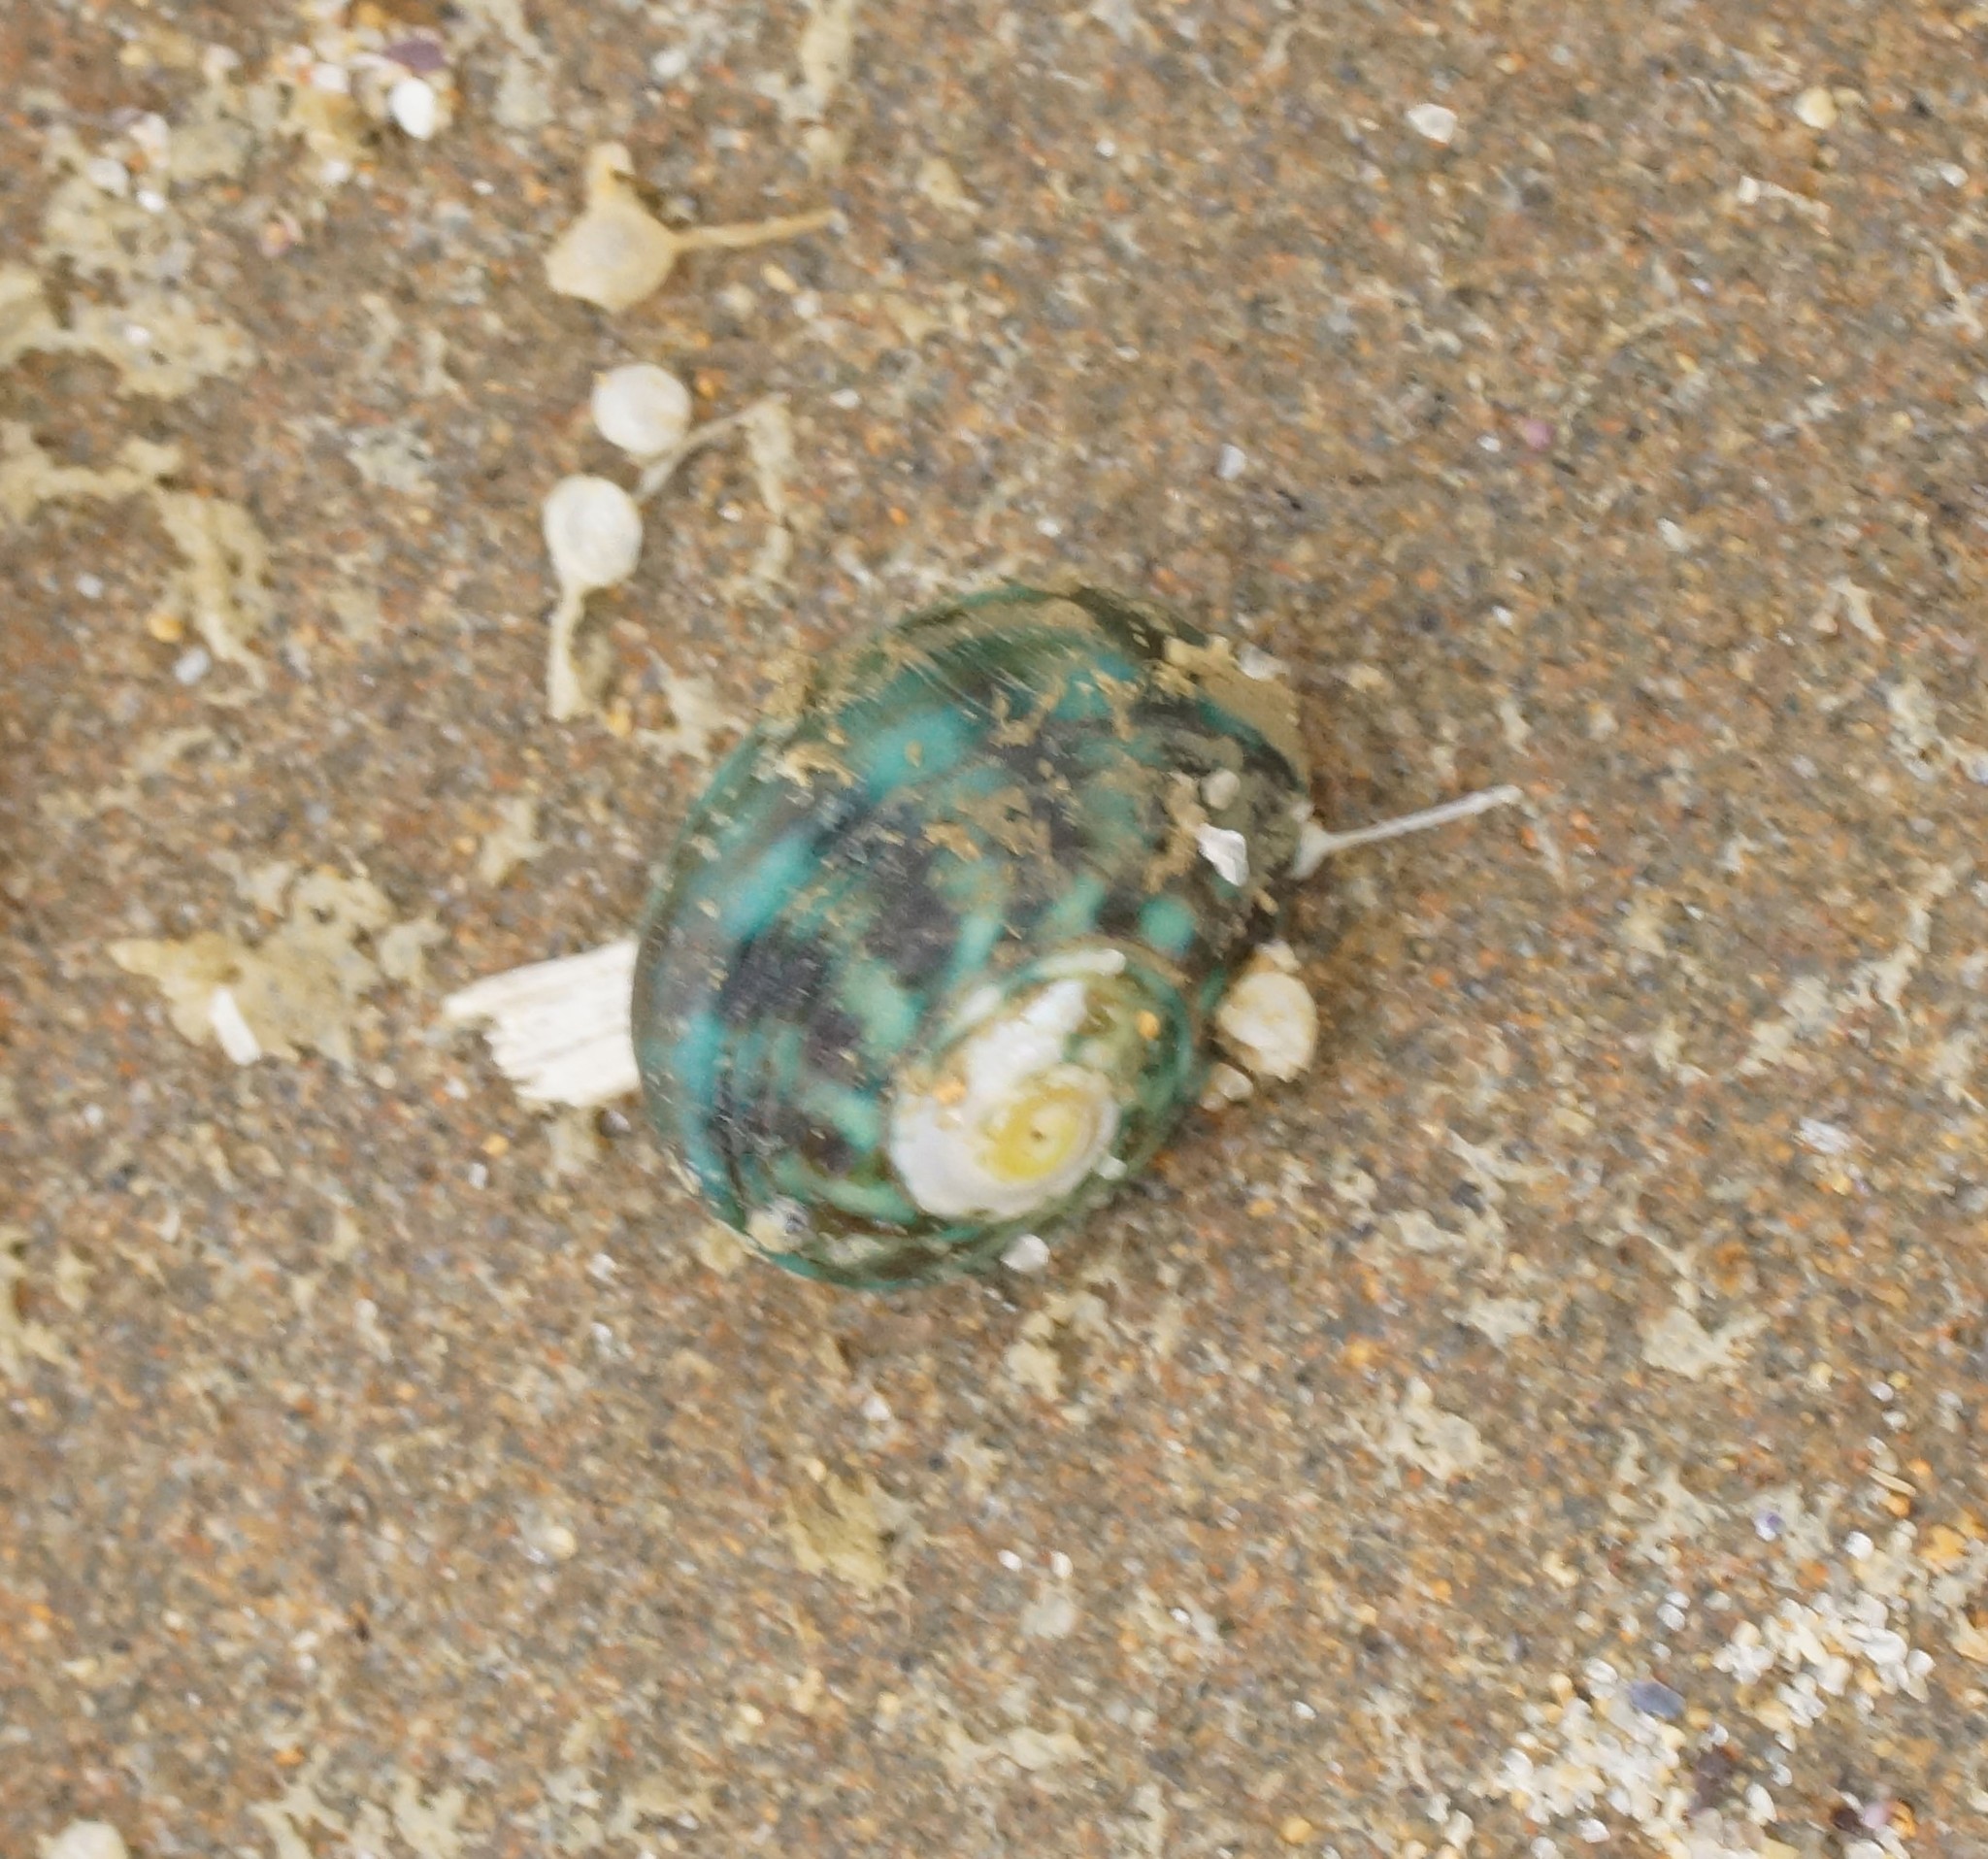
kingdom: Animalia
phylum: Mollusca
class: Gastropoda
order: Trochida
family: Turbinidae
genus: Lunella
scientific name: Lunella undulata
